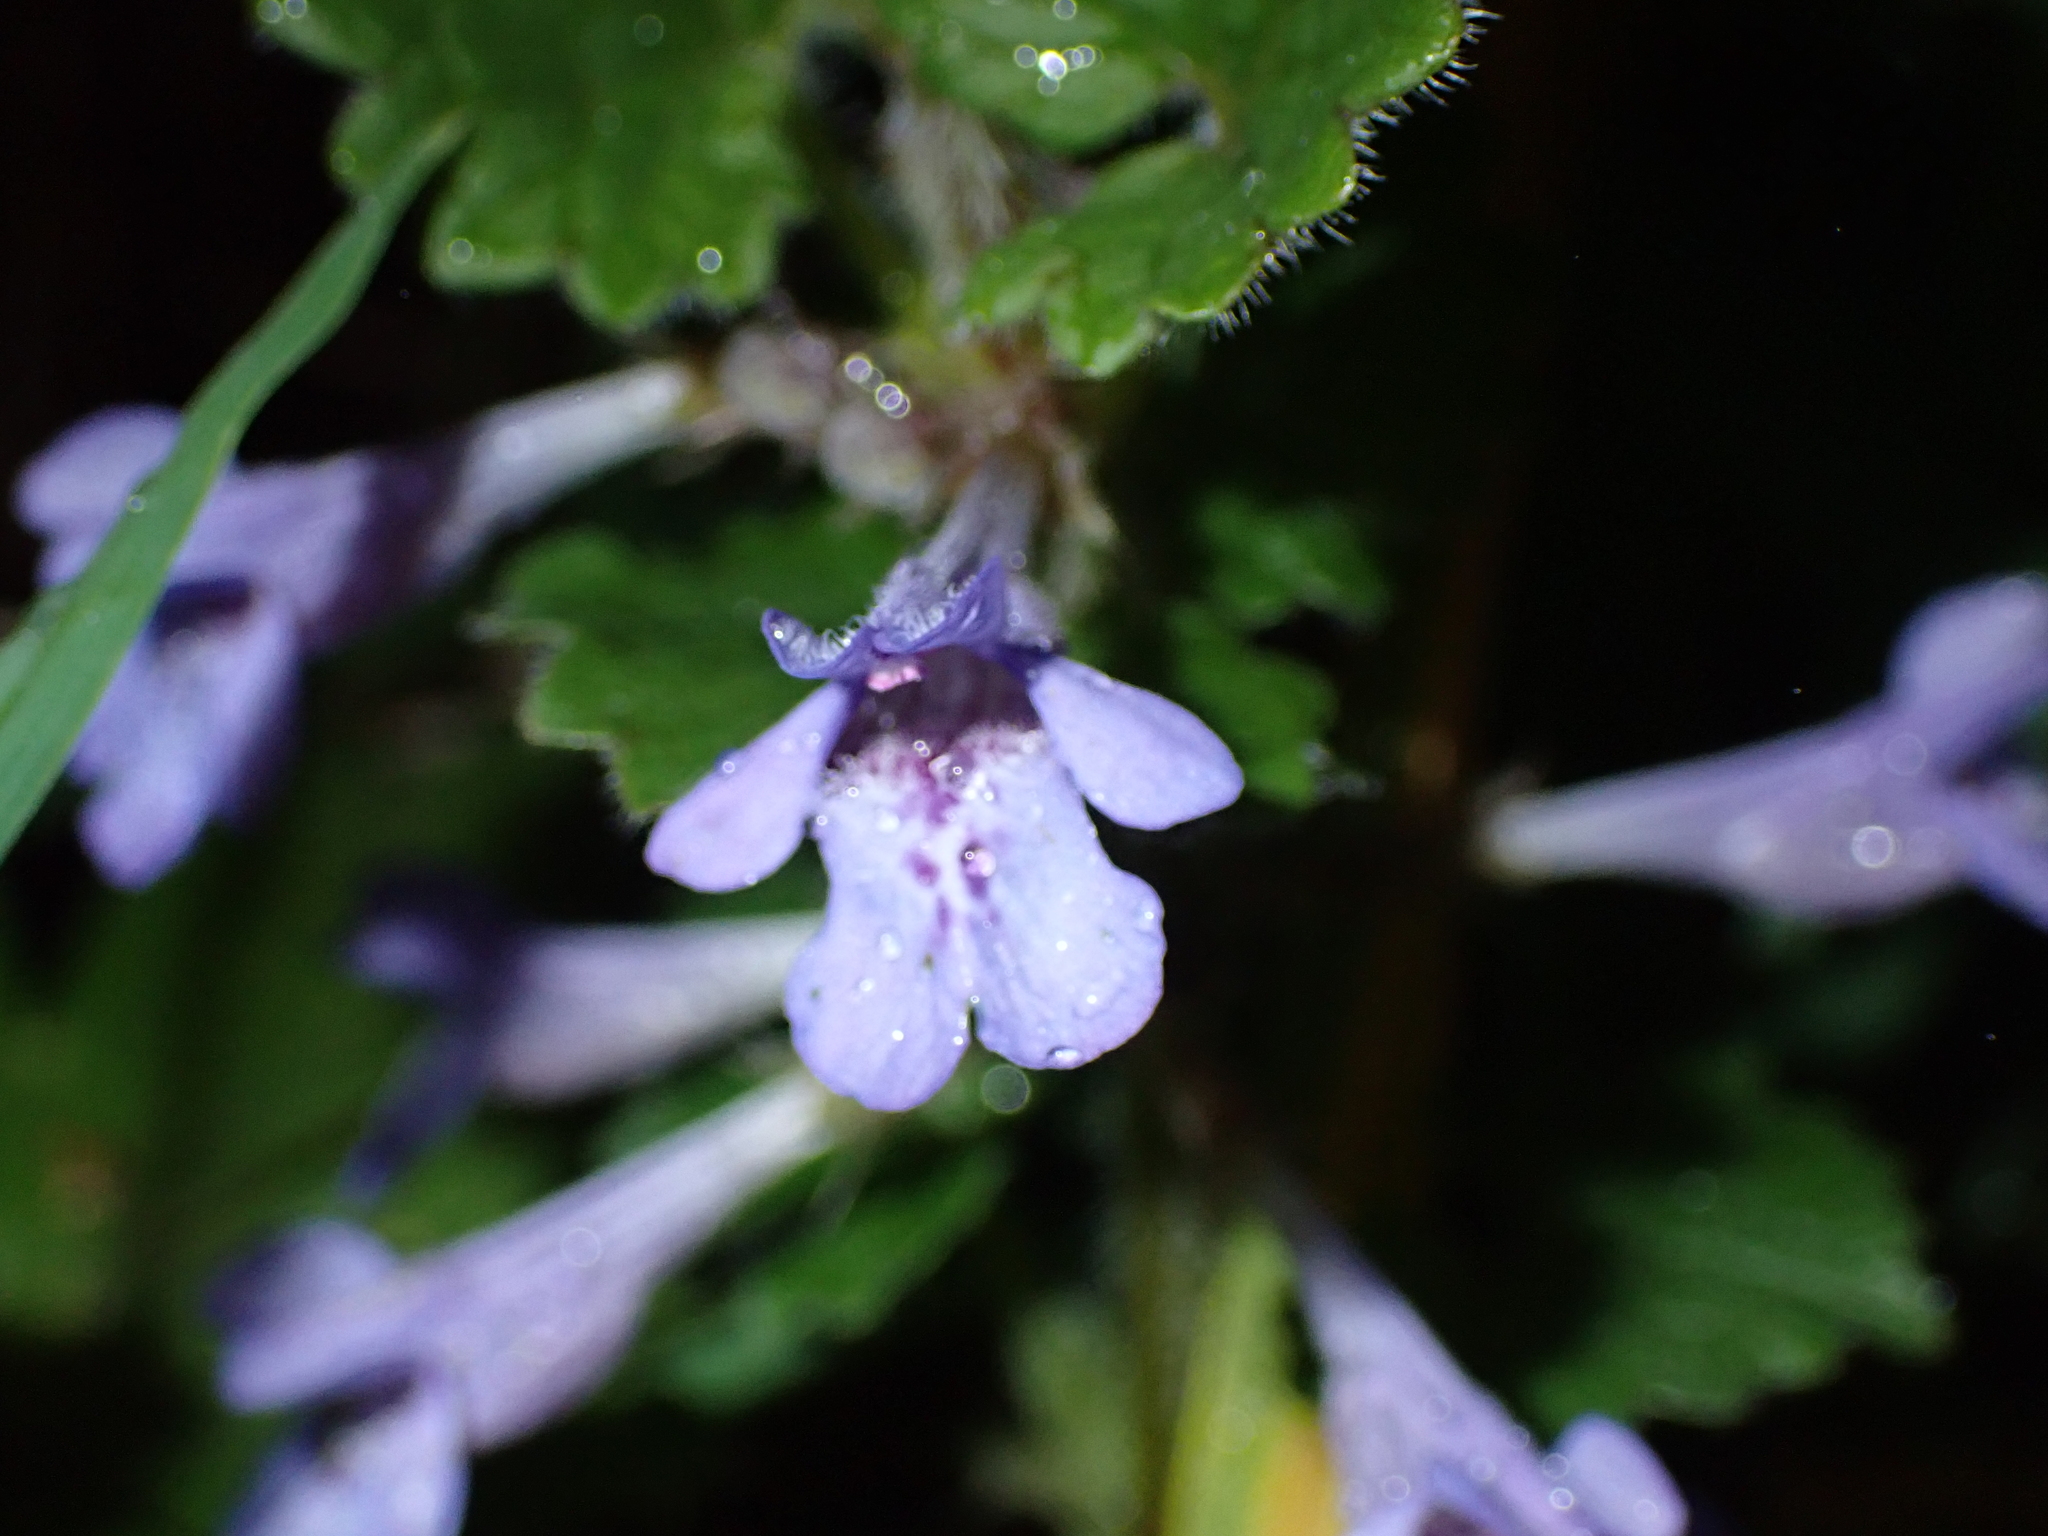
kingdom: Plantae
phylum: Tracheophyta
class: Magnoliopsida
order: Lamiales
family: Lamiaceae
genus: Glechoma
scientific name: Glechoma hederacea
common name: Ground ivy
